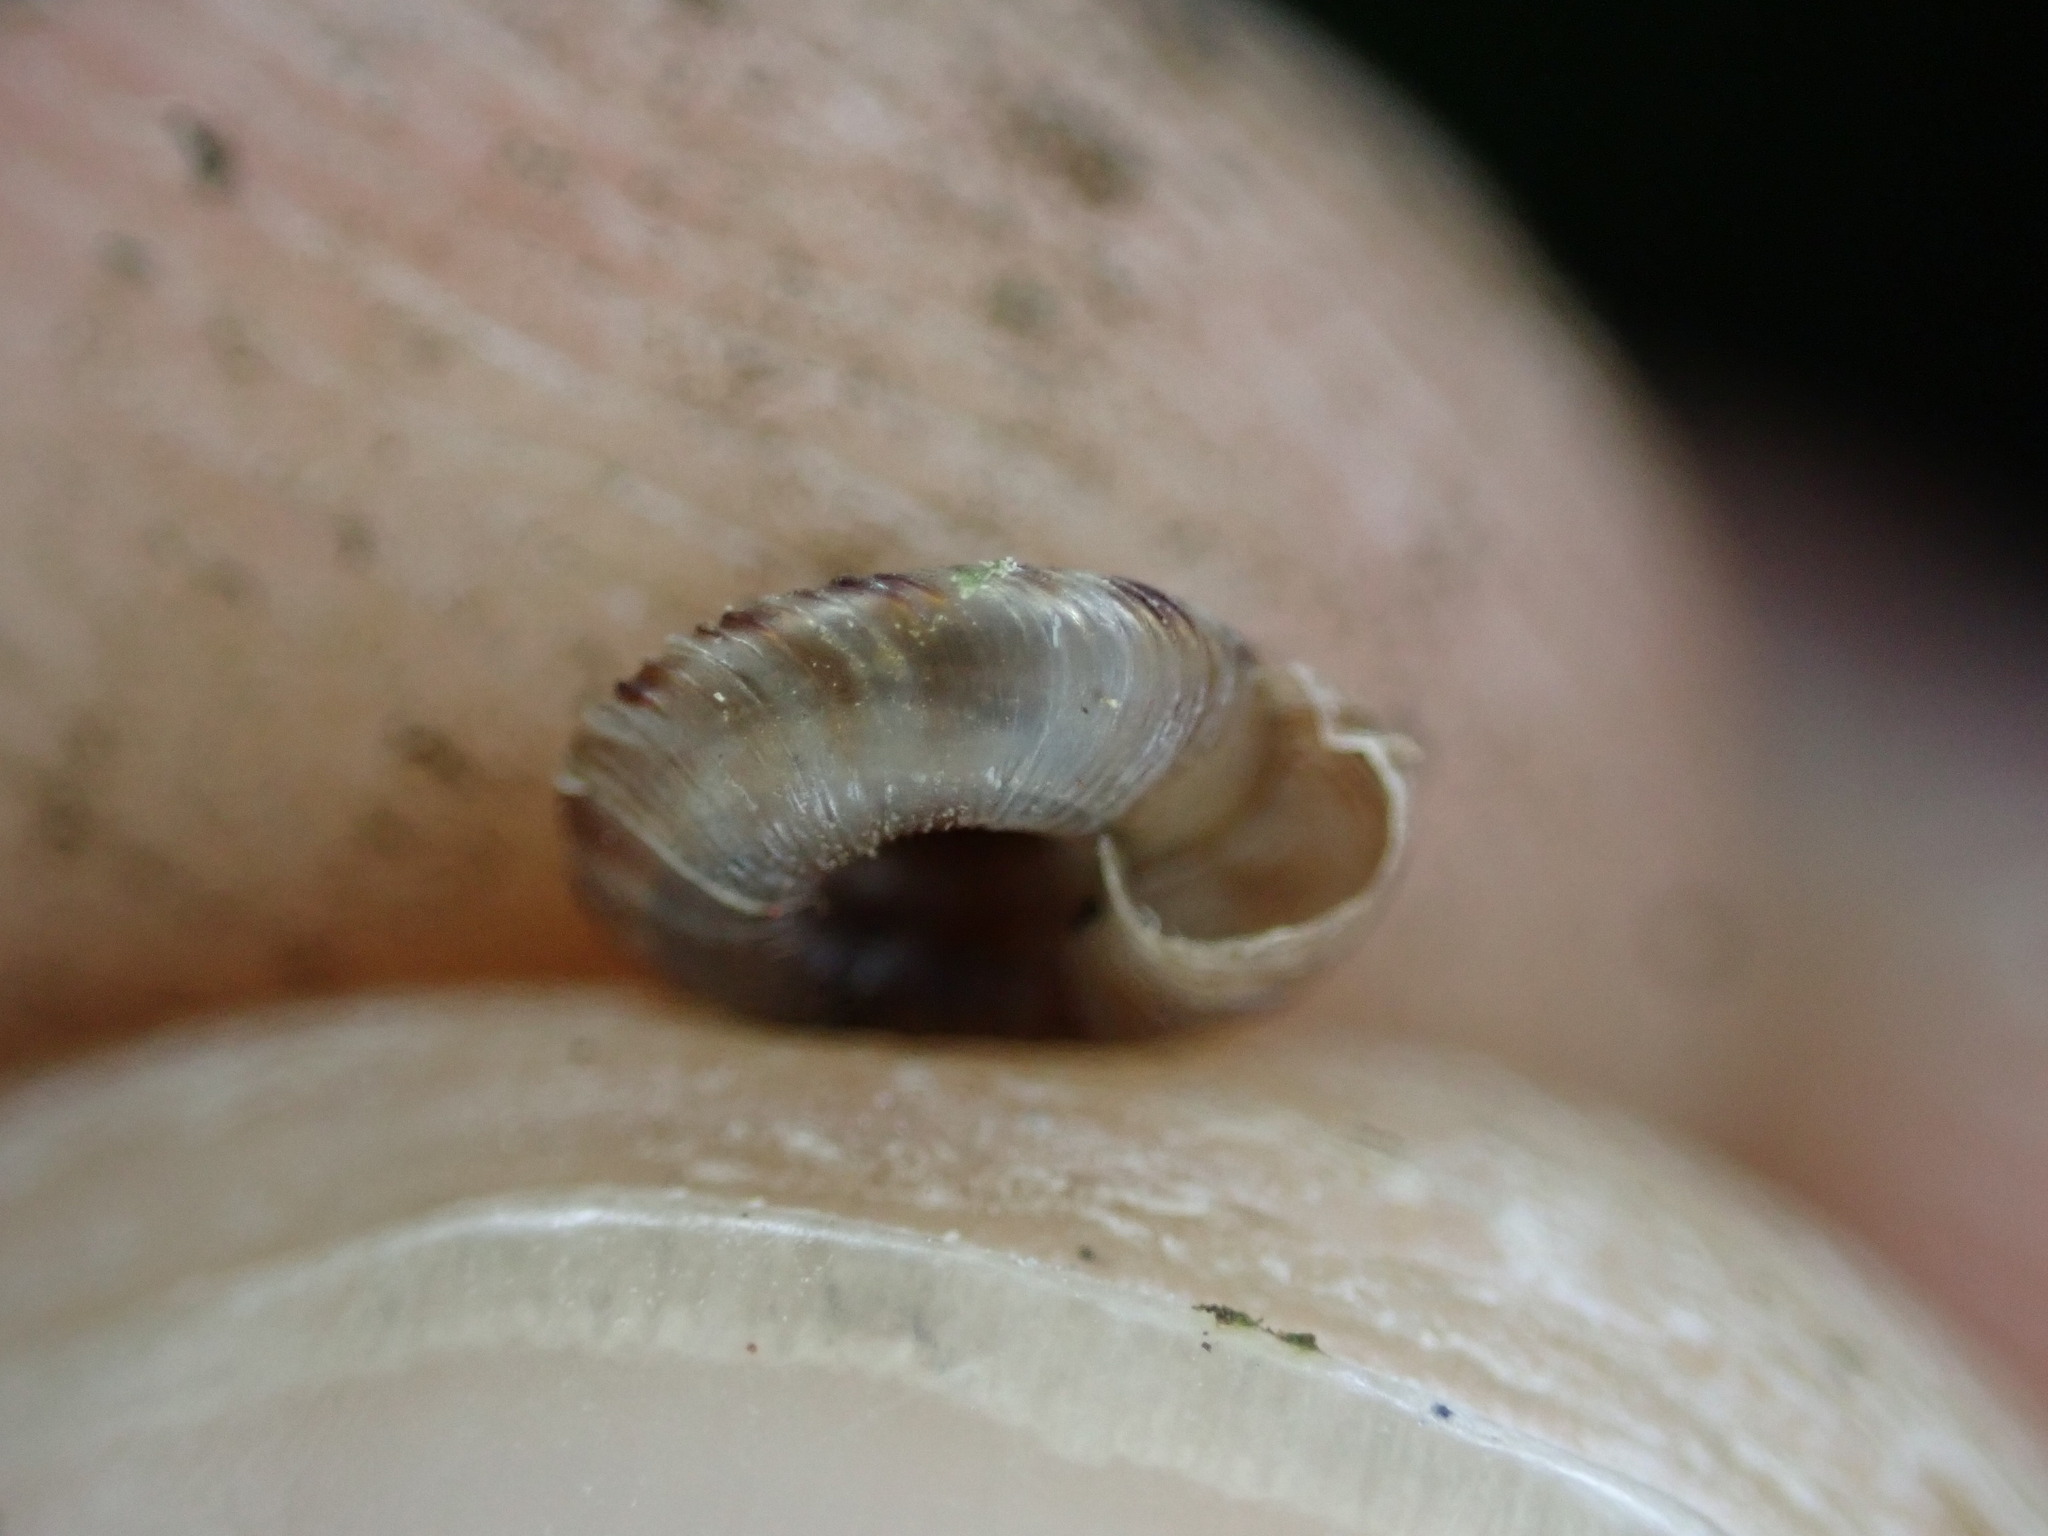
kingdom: Animalia
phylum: Mollusca
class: Gastropoda
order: Stylommatophora
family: Discidae
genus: Discus
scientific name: Discus rotundatus
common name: Rounded snail
